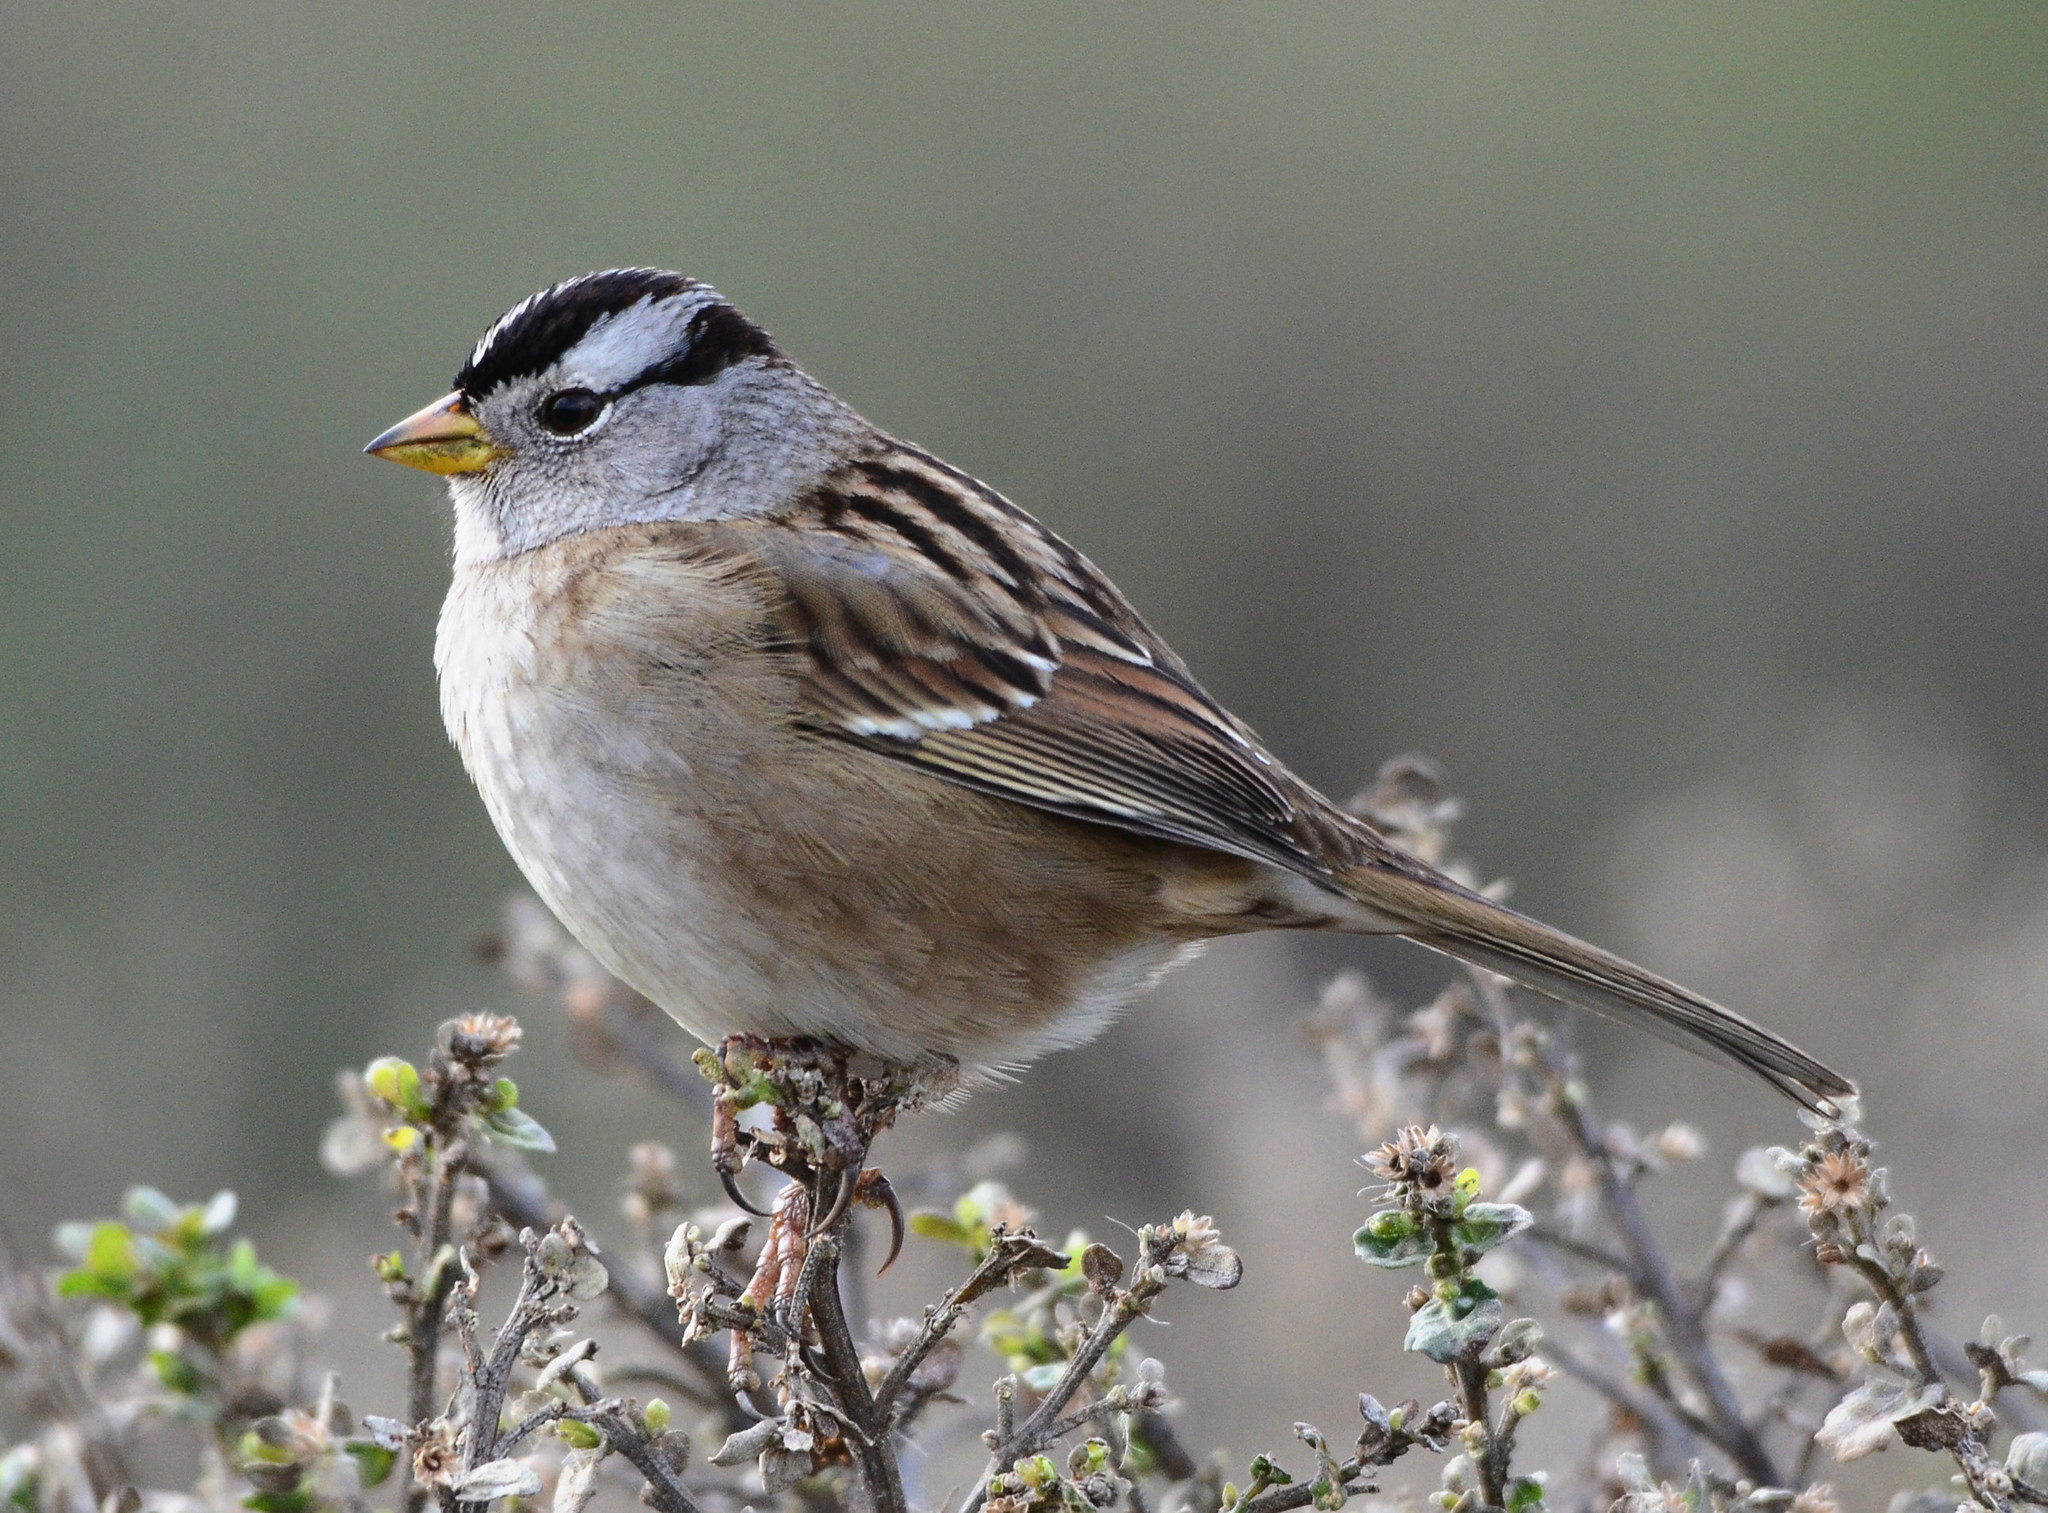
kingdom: Animalia
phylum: Chordata
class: Aves
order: Passeriformes
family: Passerellidae
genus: Zonotrichia
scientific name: Zonotrichia leucophrys
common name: White-crowned sparrow
